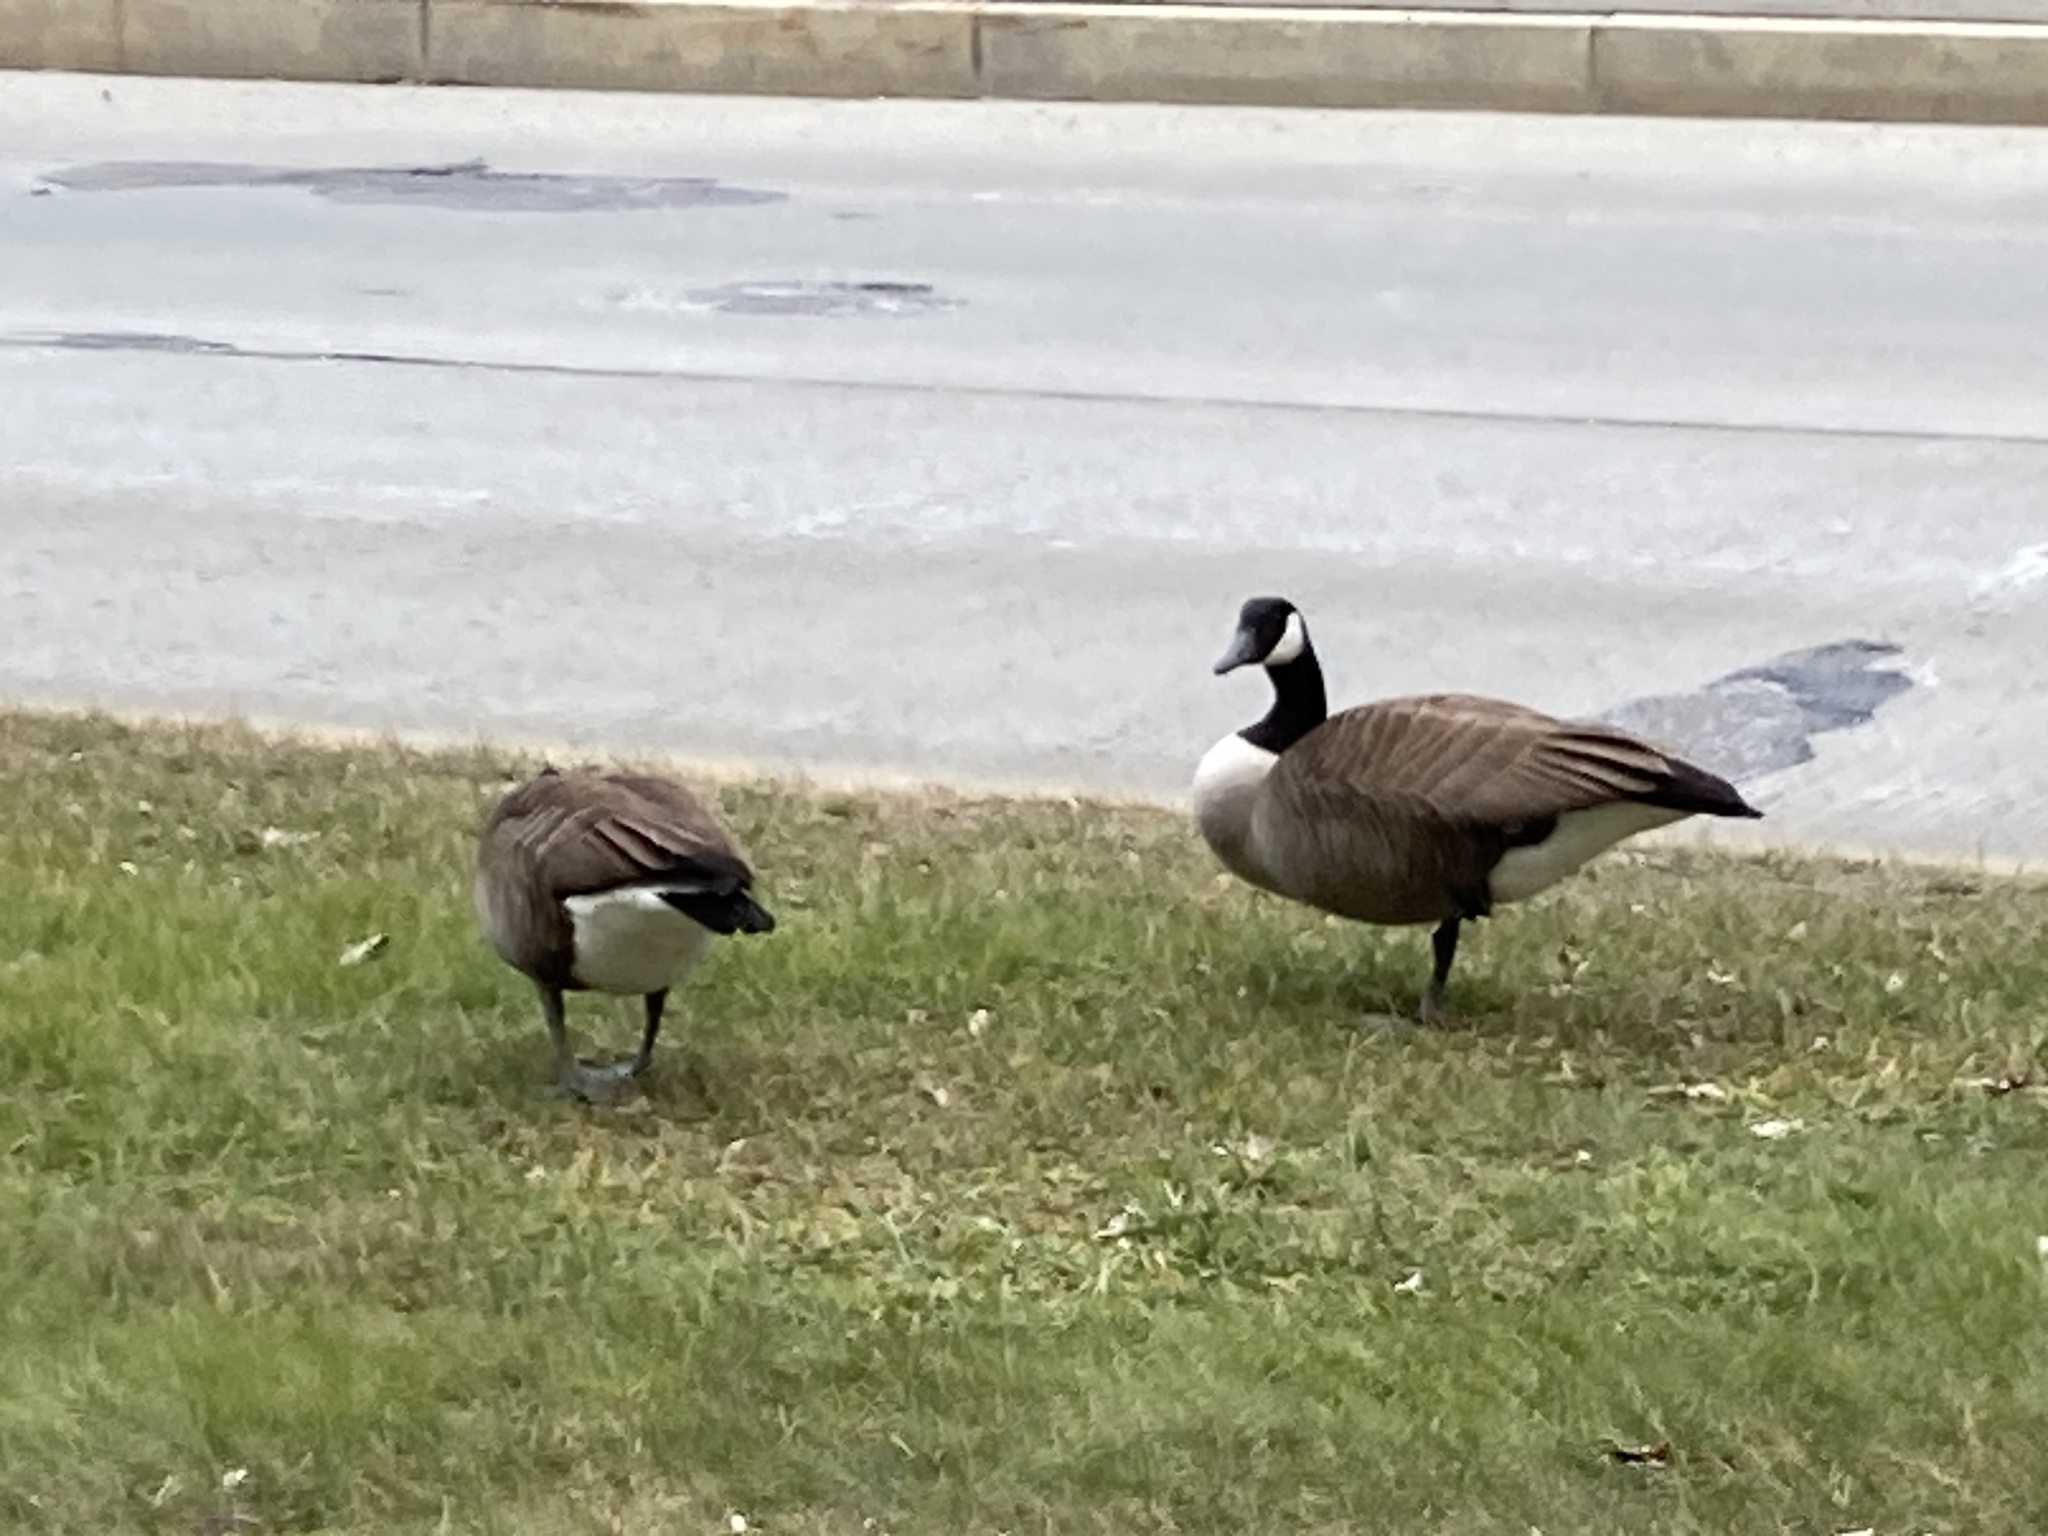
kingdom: Animalia
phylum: Chordata
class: Aves
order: Anseriformes
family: Anatidae
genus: Branta
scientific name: Branta canadensis
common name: Canada goose
